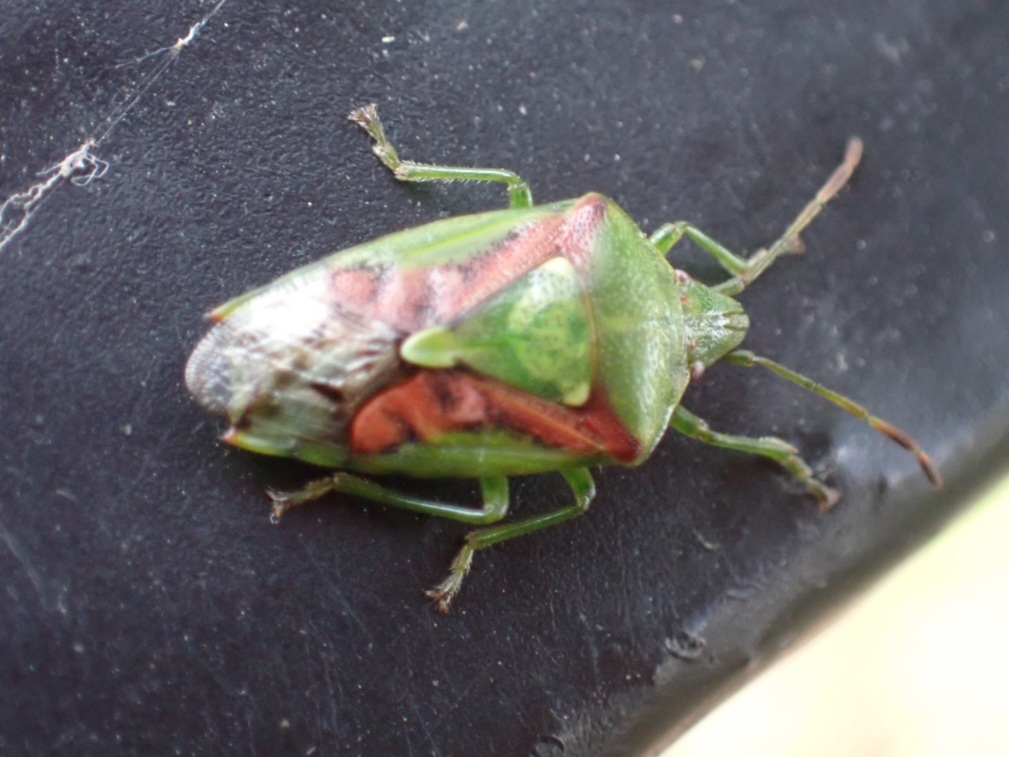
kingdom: Animalia
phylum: Arthropoda
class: Insecta
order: Hemiptera
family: Acanthosomatidae
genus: Cyphostethus
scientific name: Cyphostethus tristriatus
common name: Juniper shieldbug
